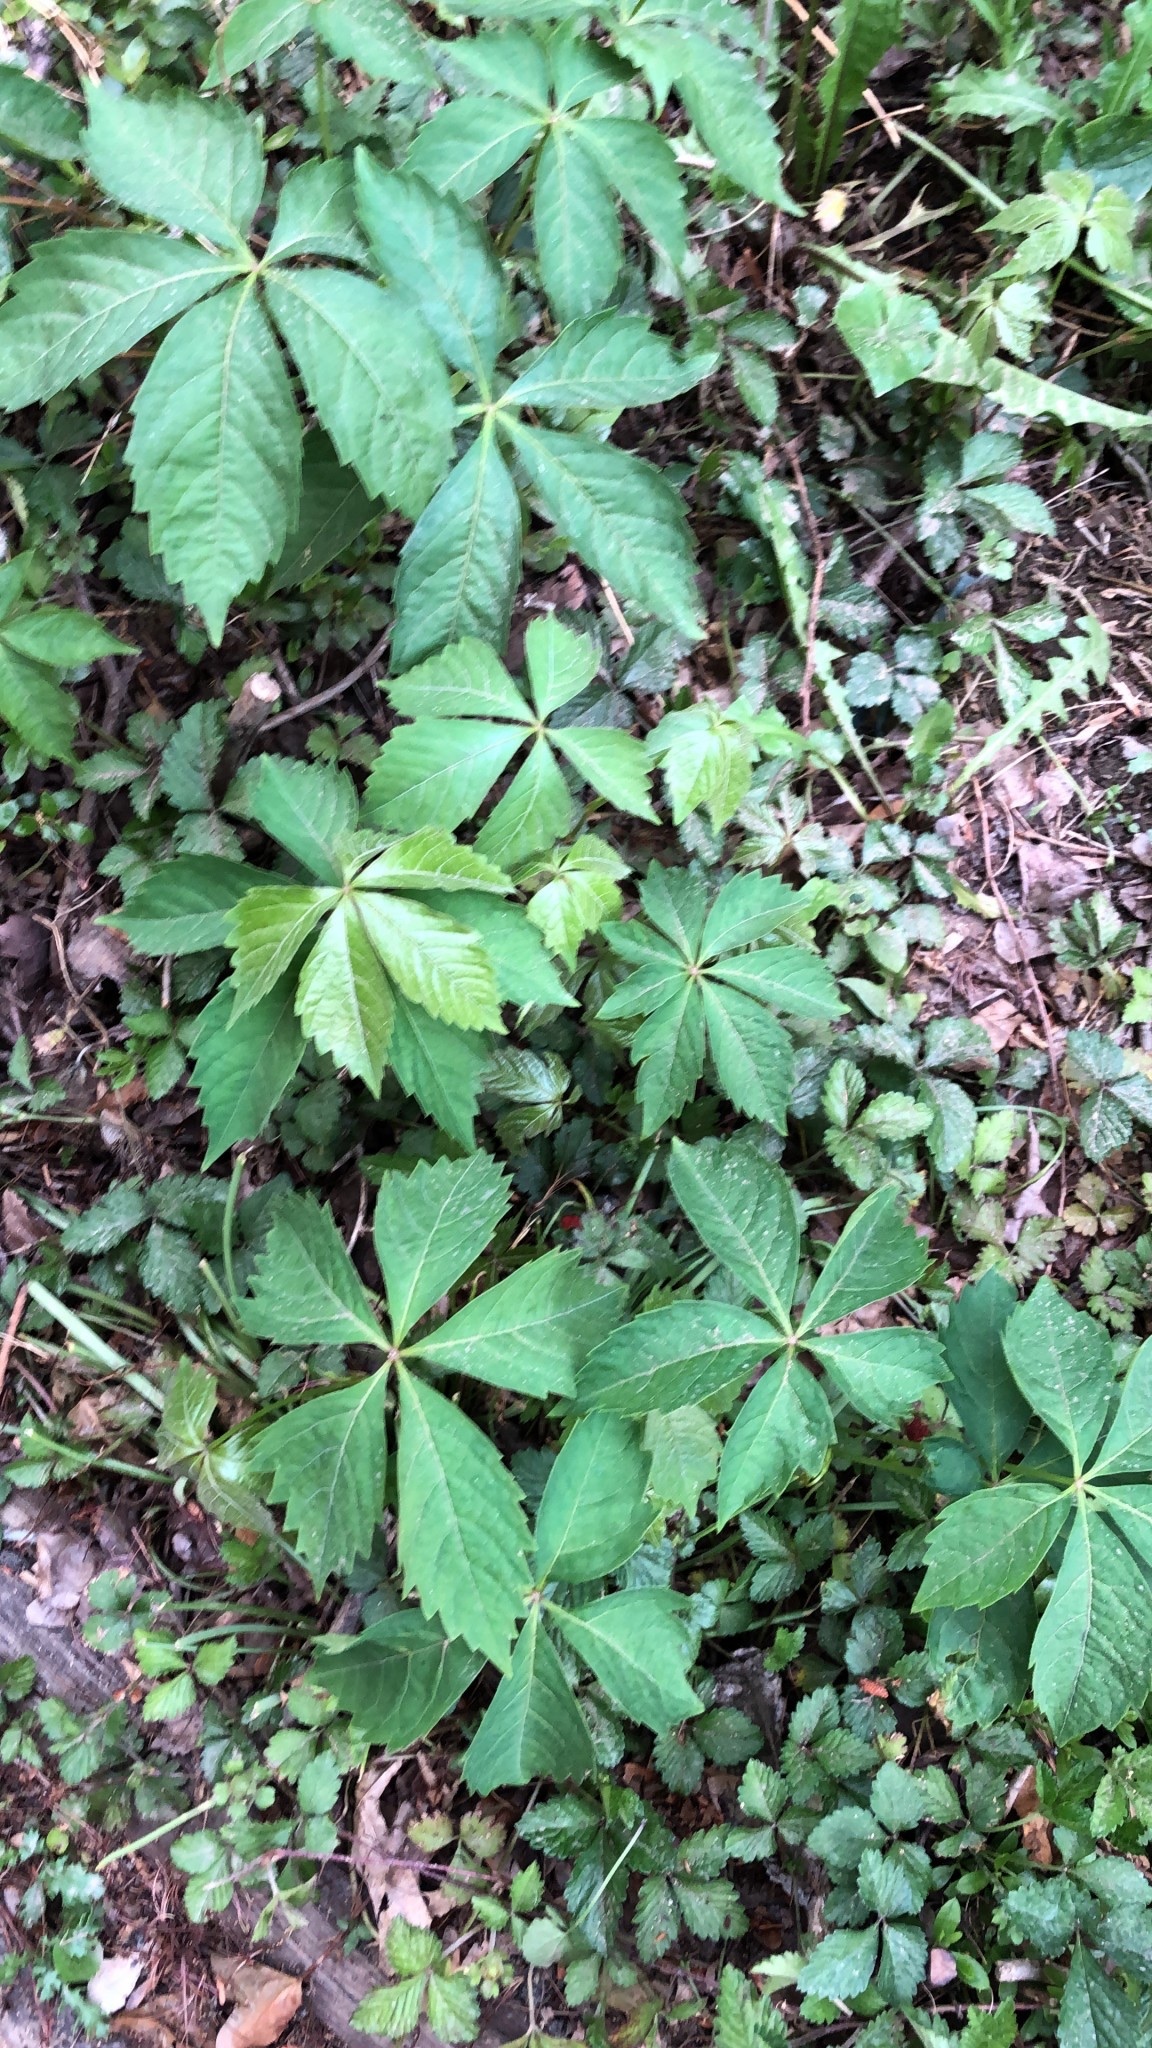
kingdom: Plantae
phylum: Tracheophyta
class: Magnoliopsida
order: Vitales
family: Vitaceae
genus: Parthenocissus
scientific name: Parthenocissus quinquefolia
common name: Virginia-creeper
